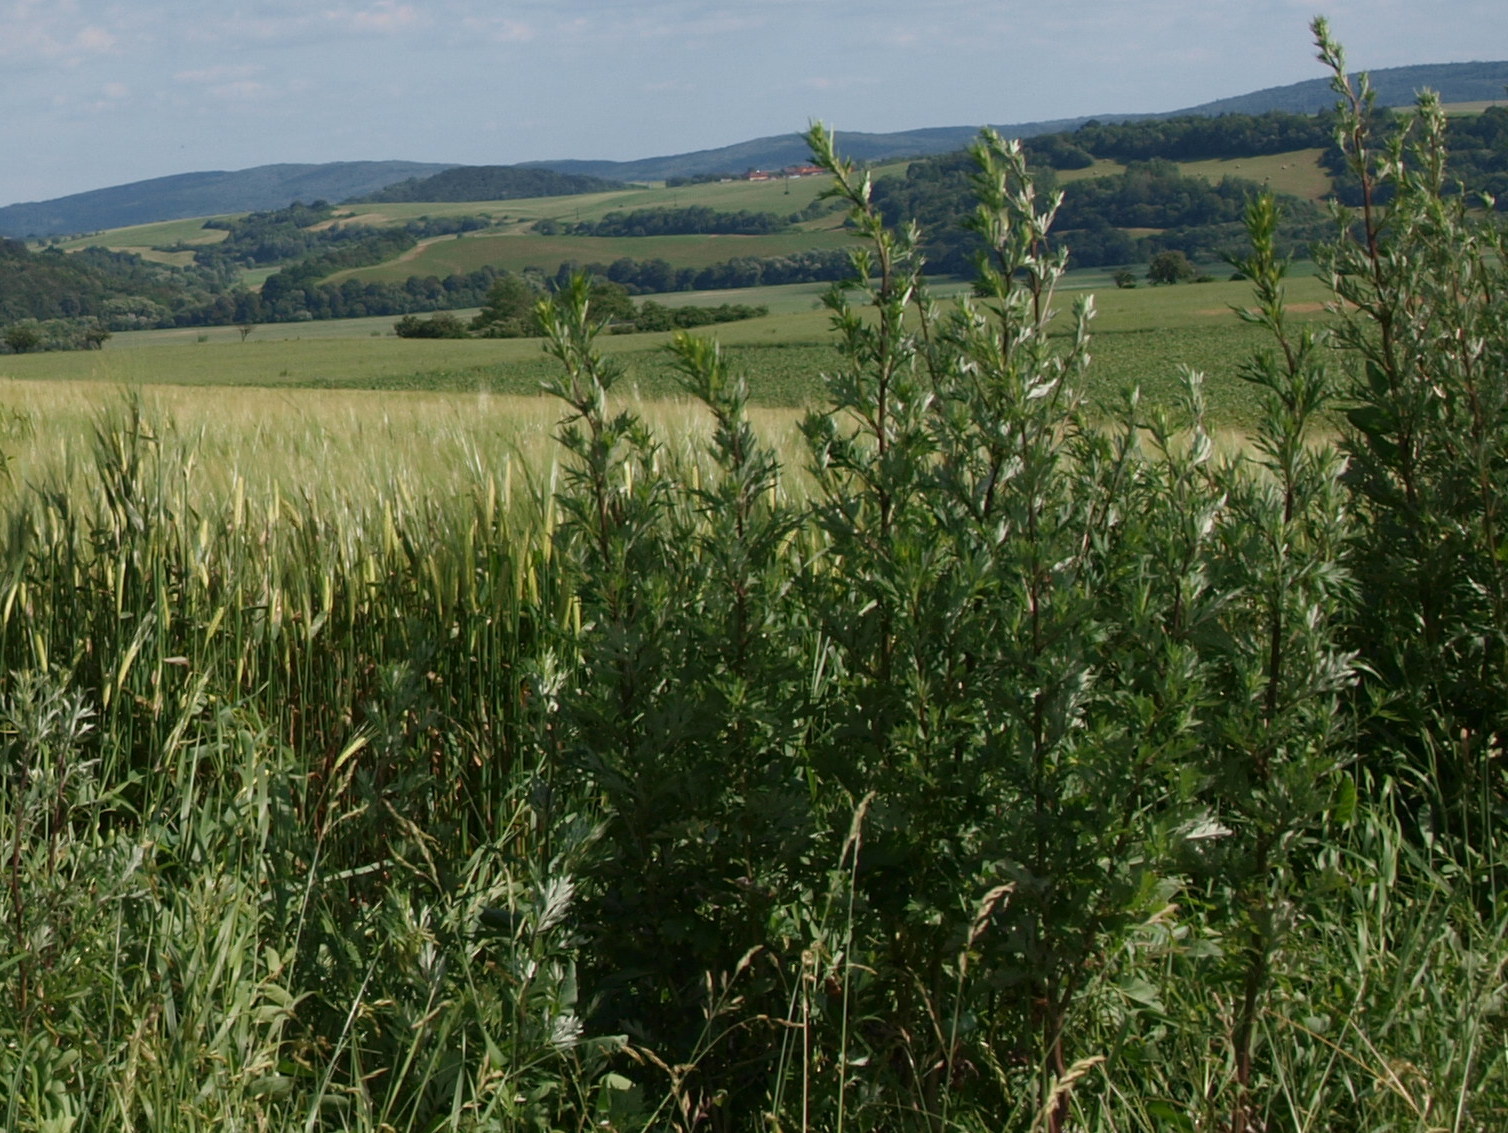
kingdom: Plantae
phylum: Tracheophyta
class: Magnoliopsida
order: Asterales
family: Asteraceae
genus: Artemisia
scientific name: Artemisia vulgaris
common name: Mugwort
